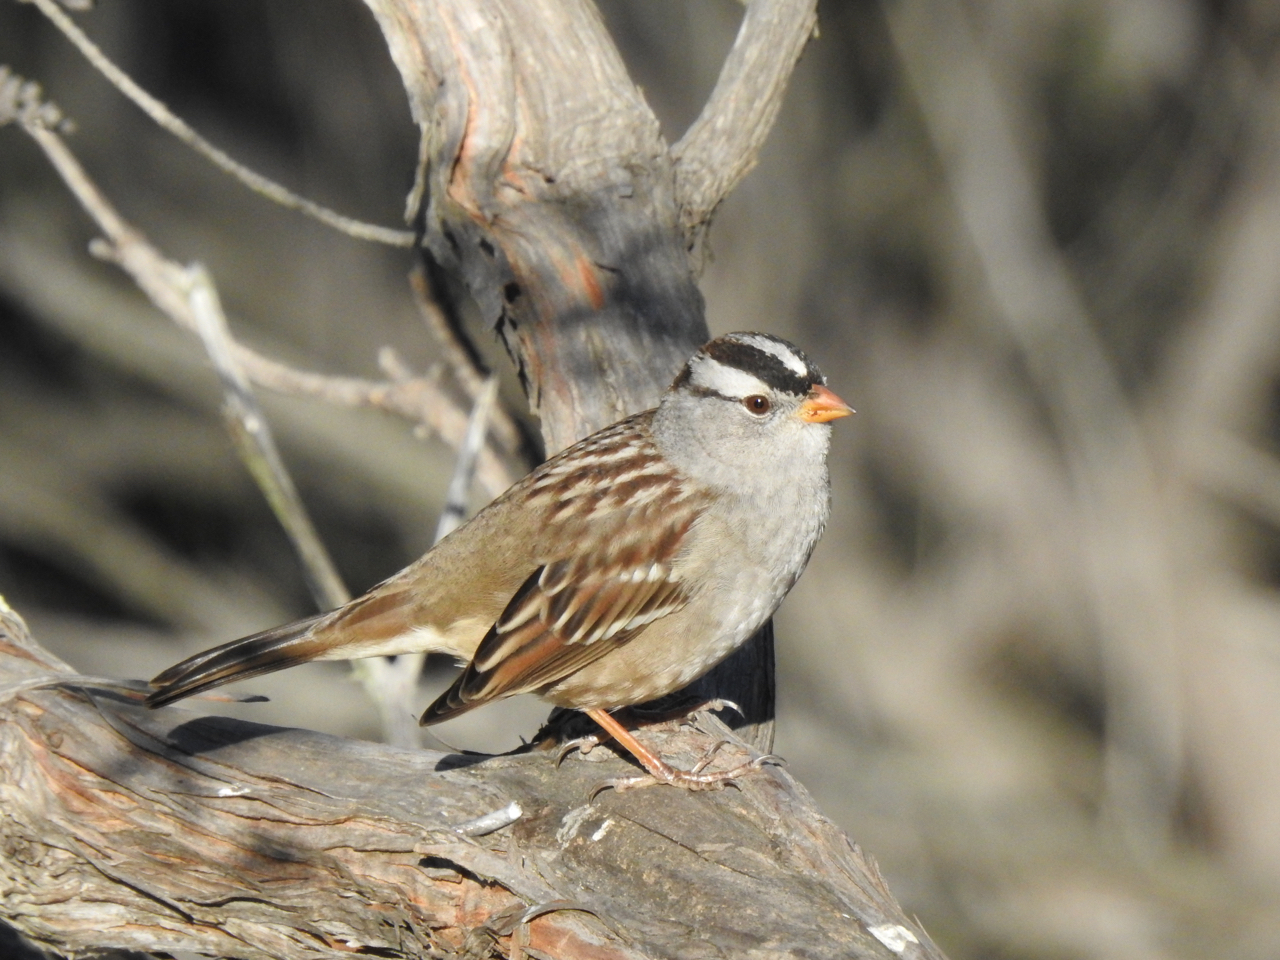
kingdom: Animalia
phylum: Chordata
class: Aves
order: Passeriformes
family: Passerellidae
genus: Zonotrichia
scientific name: Zonotrichia leucophrys
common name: White-crowned sparrow
